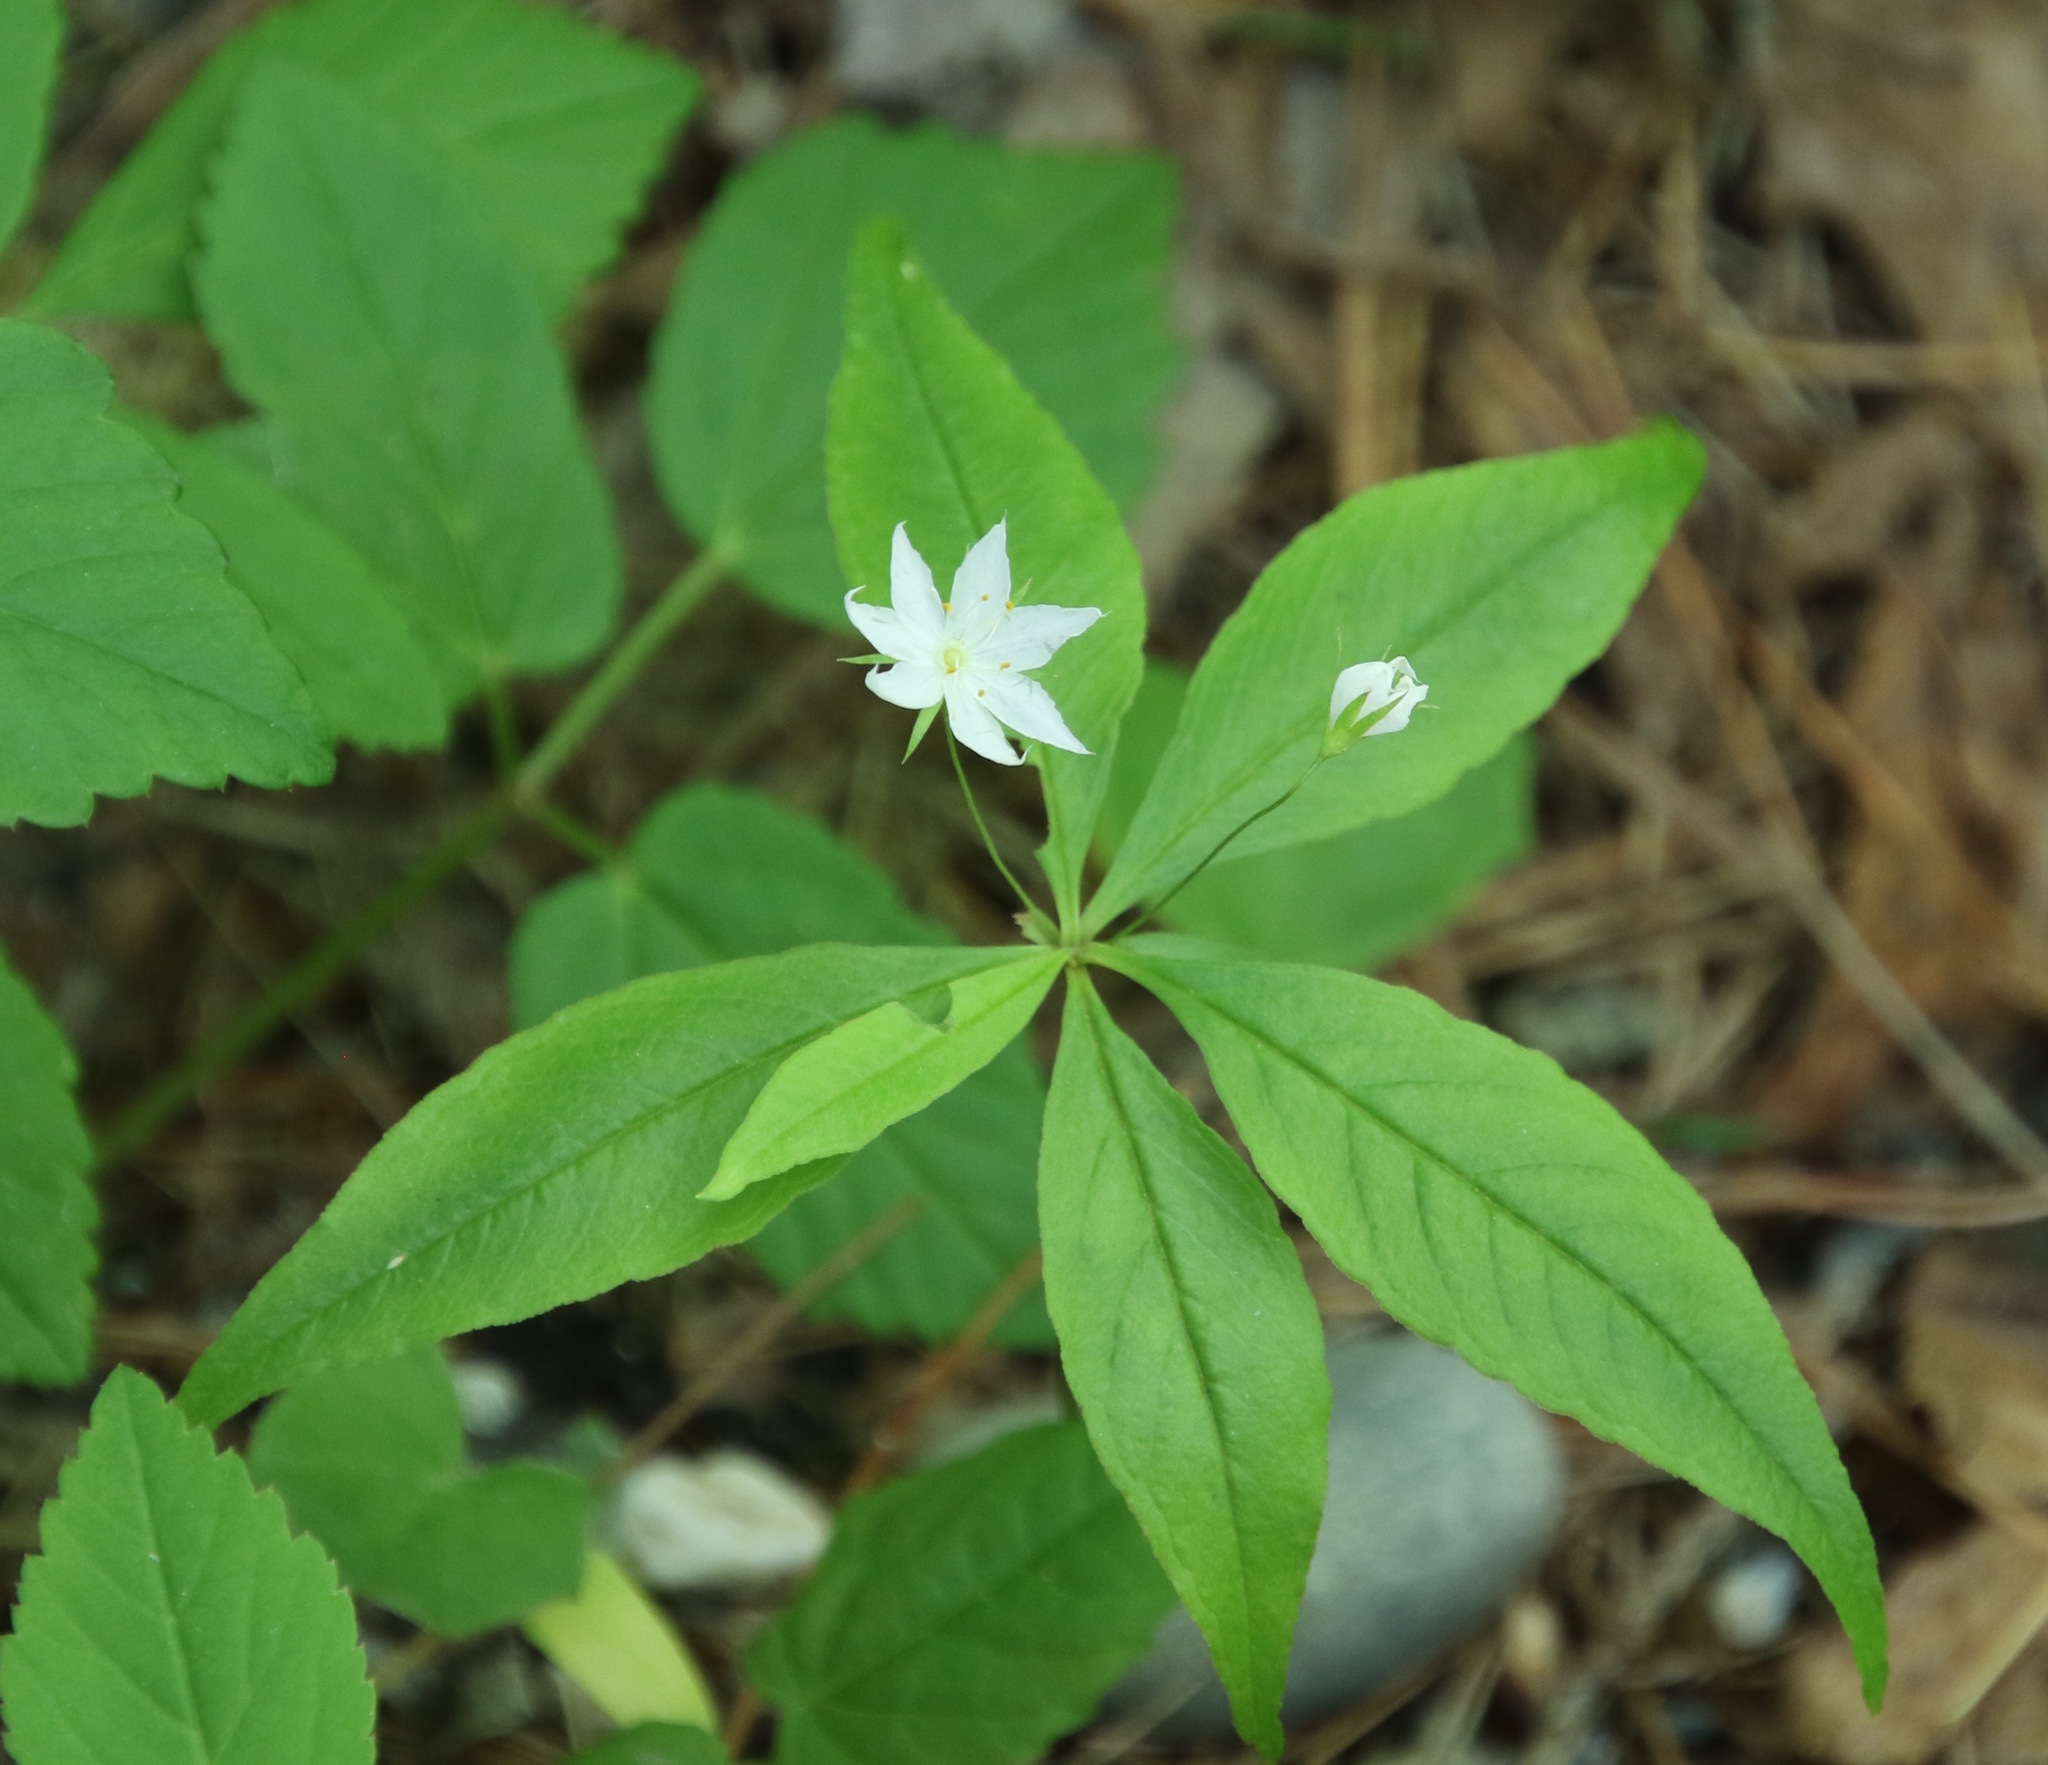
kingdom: Plantae
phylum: Tracheophyta
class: Magnoliopsida
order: Ericales
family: Primulaceae
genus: Lysimachia
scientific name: Lysimachia borealis
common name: American starflower
